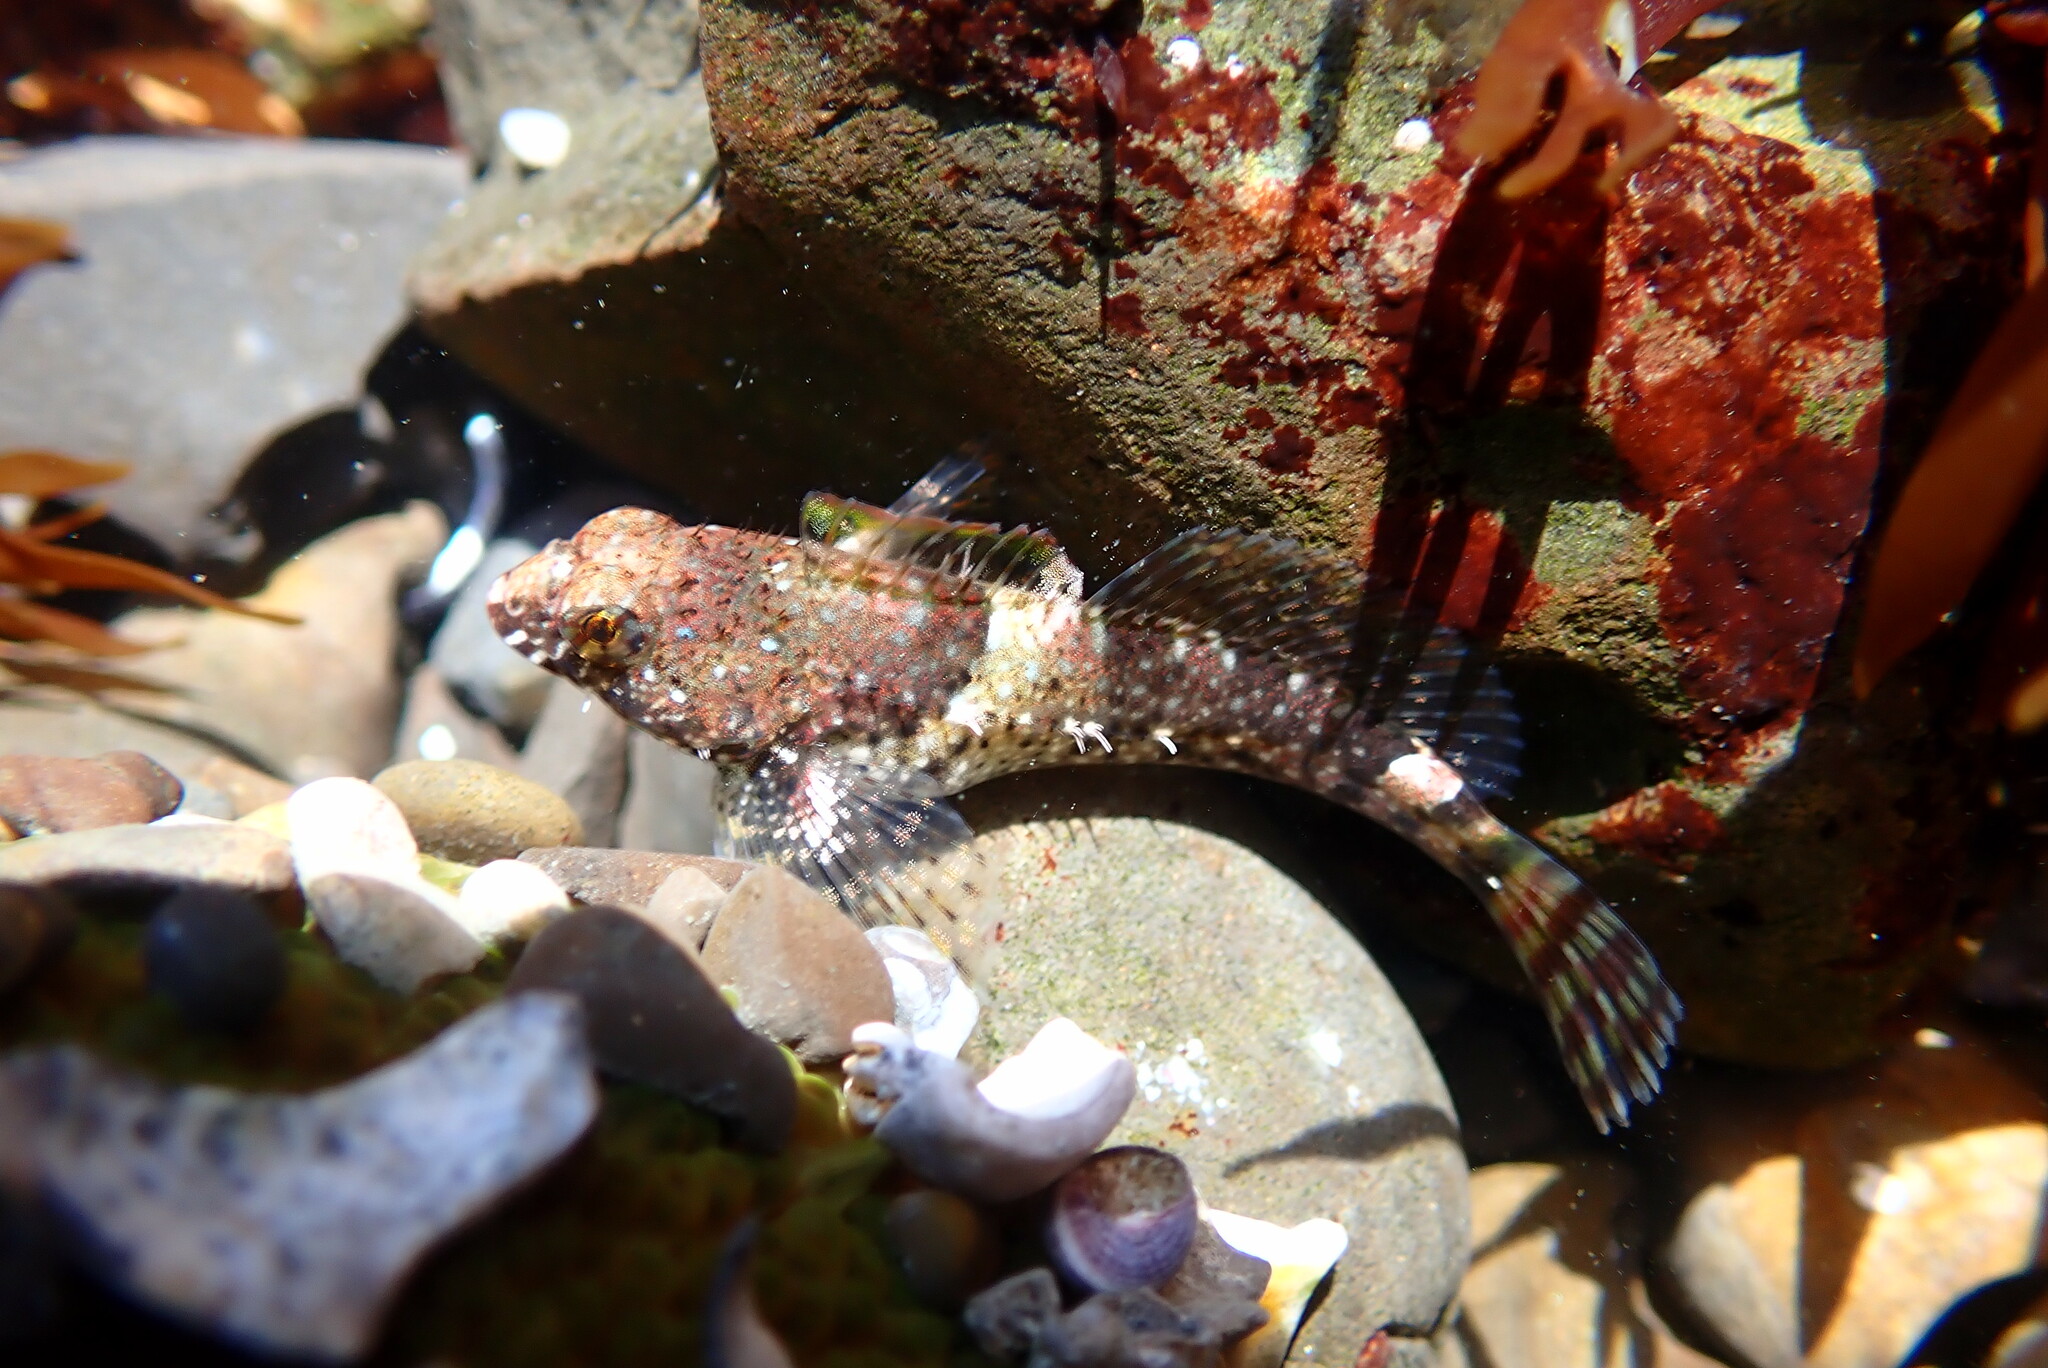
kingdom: Animalia
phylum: Chordata
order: Scorpaeniformes
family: Cottidae
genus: Clinocottus
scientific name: Clinocottus analis
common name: Woolly sculpin
